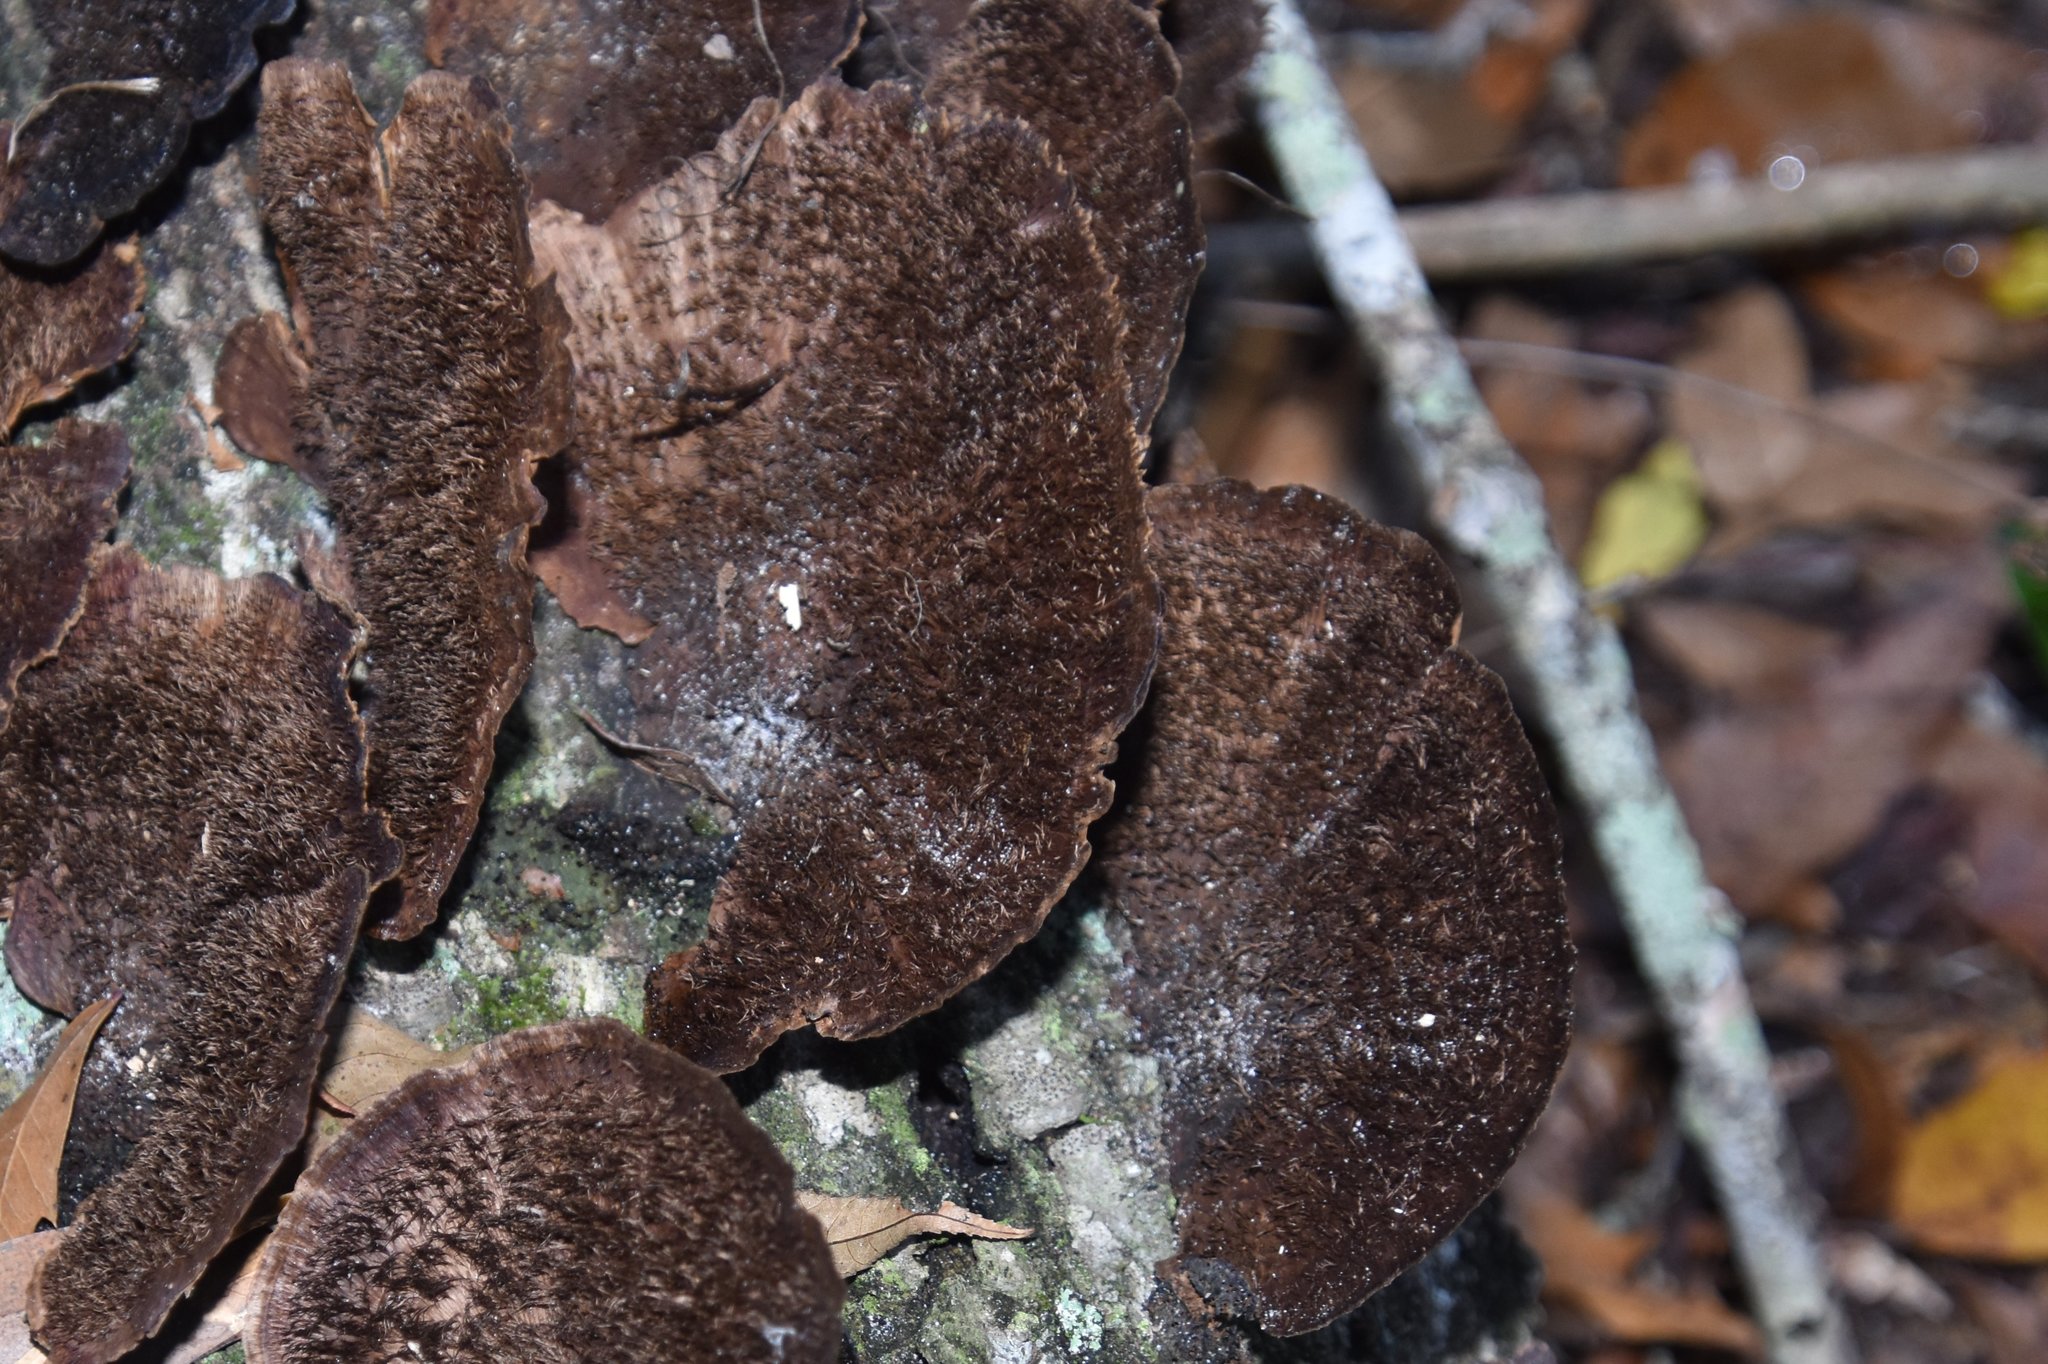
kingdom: Fungi
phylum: Basidiomycota
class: Agaricomycetes
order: Polyporales
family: Cerrenaceae
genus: Cerrena
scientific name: Cerrena hydnoides
